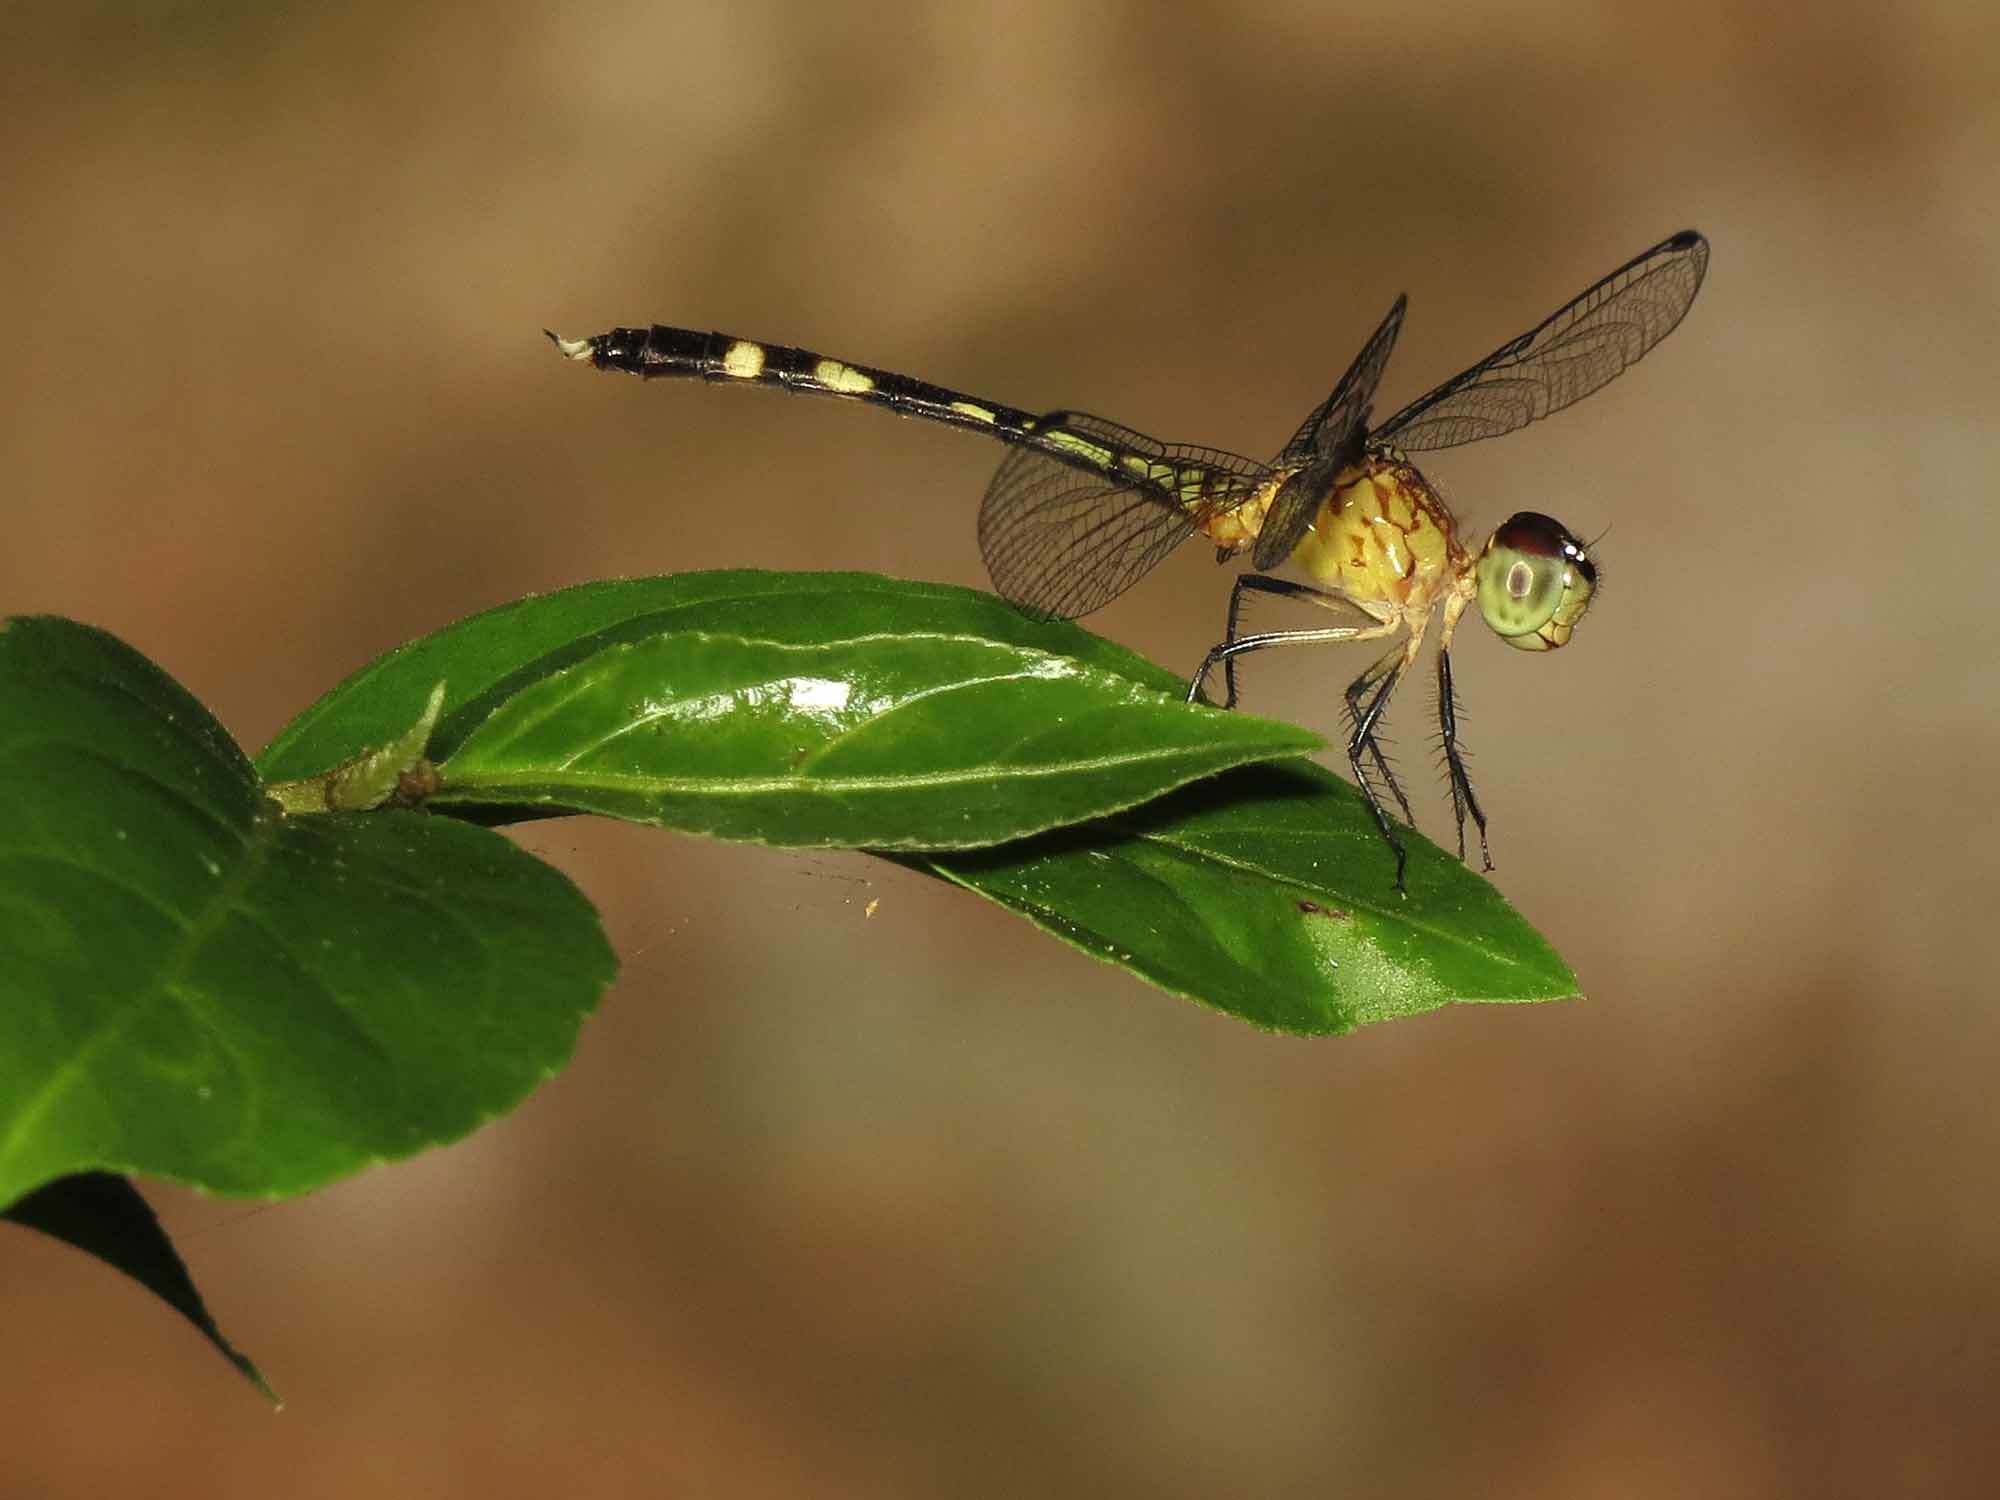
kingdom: Animalia
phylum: Arthropoda
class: Insecta
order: Odonata
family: Libellulidae
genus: Anatya
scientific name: Anatya guttata
